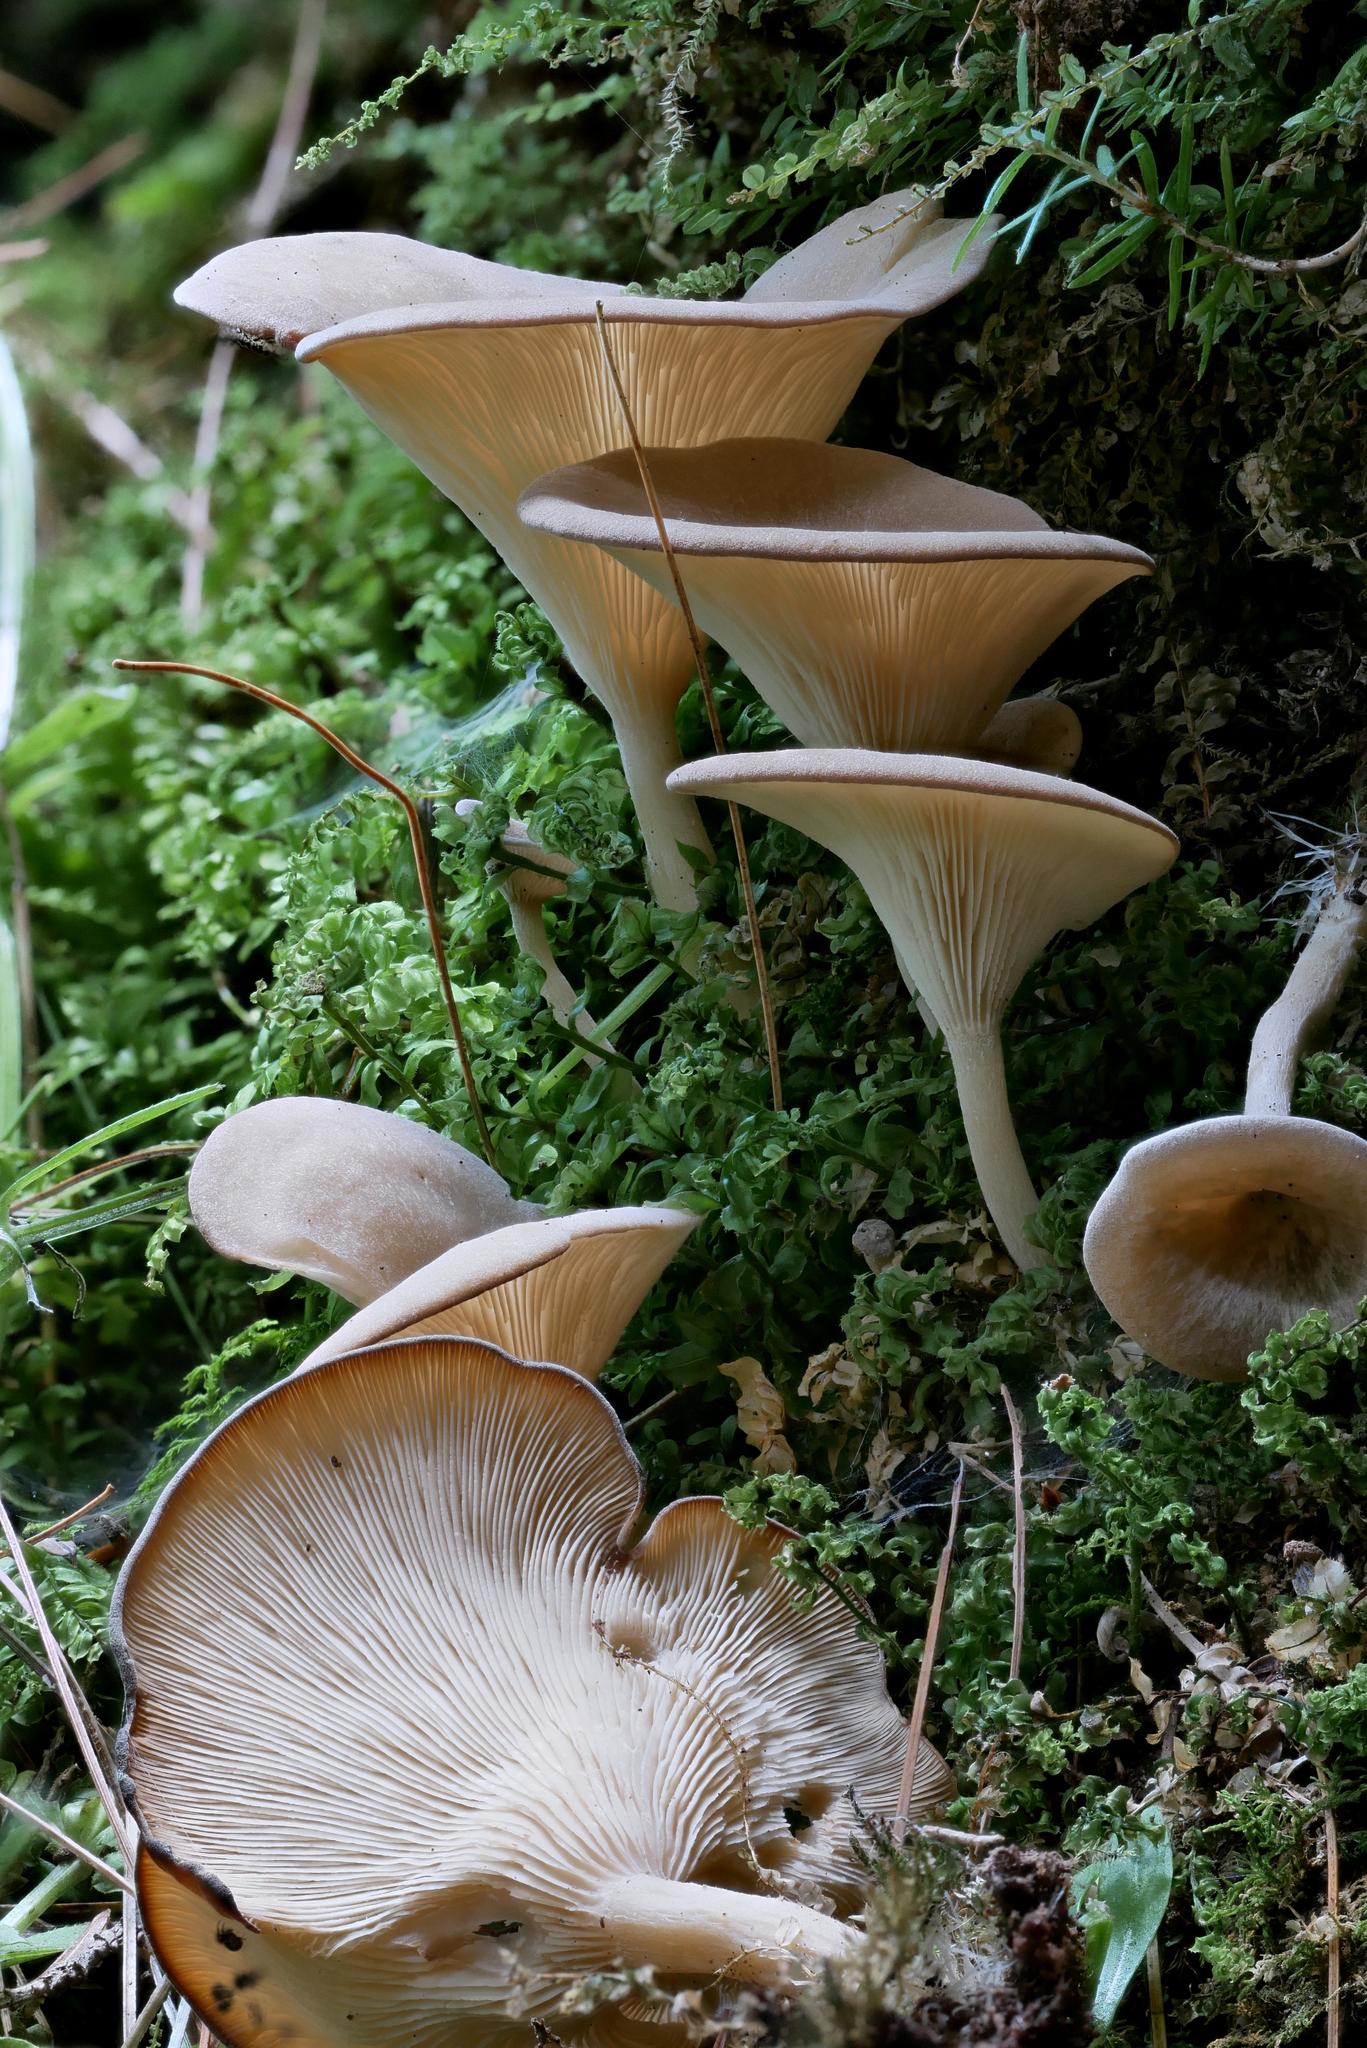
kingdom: Fungi
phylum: Basidiomycota
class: Agaricomycetes
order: Agaricales
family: Hygrophoraceae
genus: Pseudoarmillariella
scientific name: Pseudoarmillariella ectypoides
